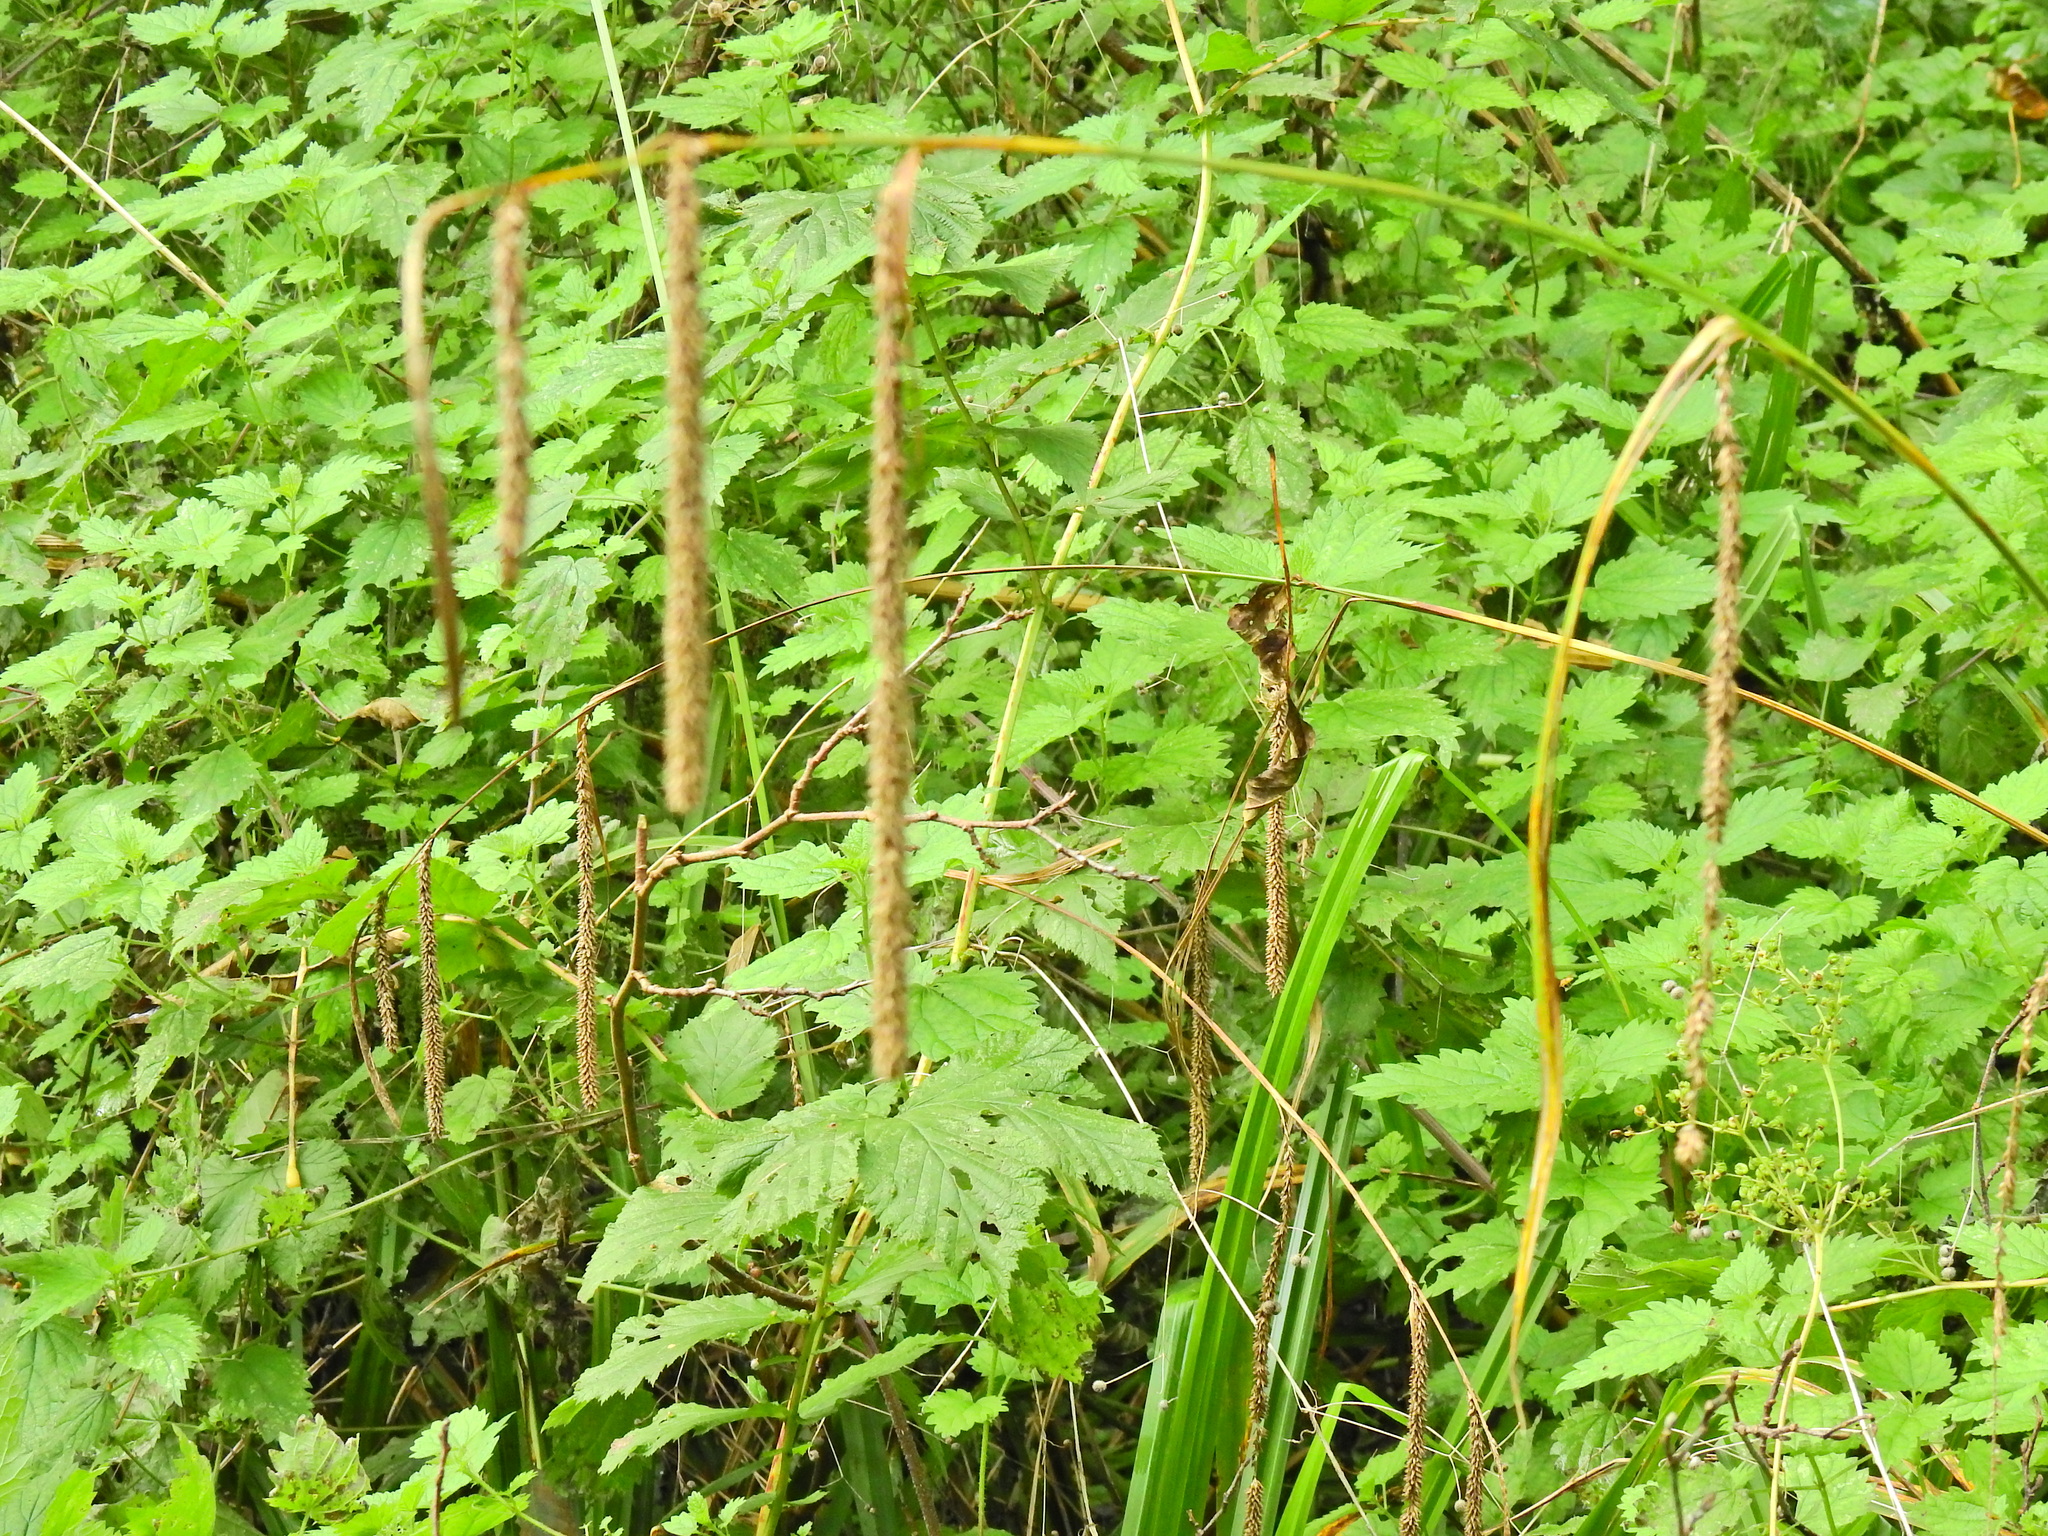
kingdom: Plantae
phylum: Tracheophyta
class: Liliopsida
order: Poales
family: Cyperaceae
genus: Carex
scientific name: Carex pendula
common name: Pendulous sedge
